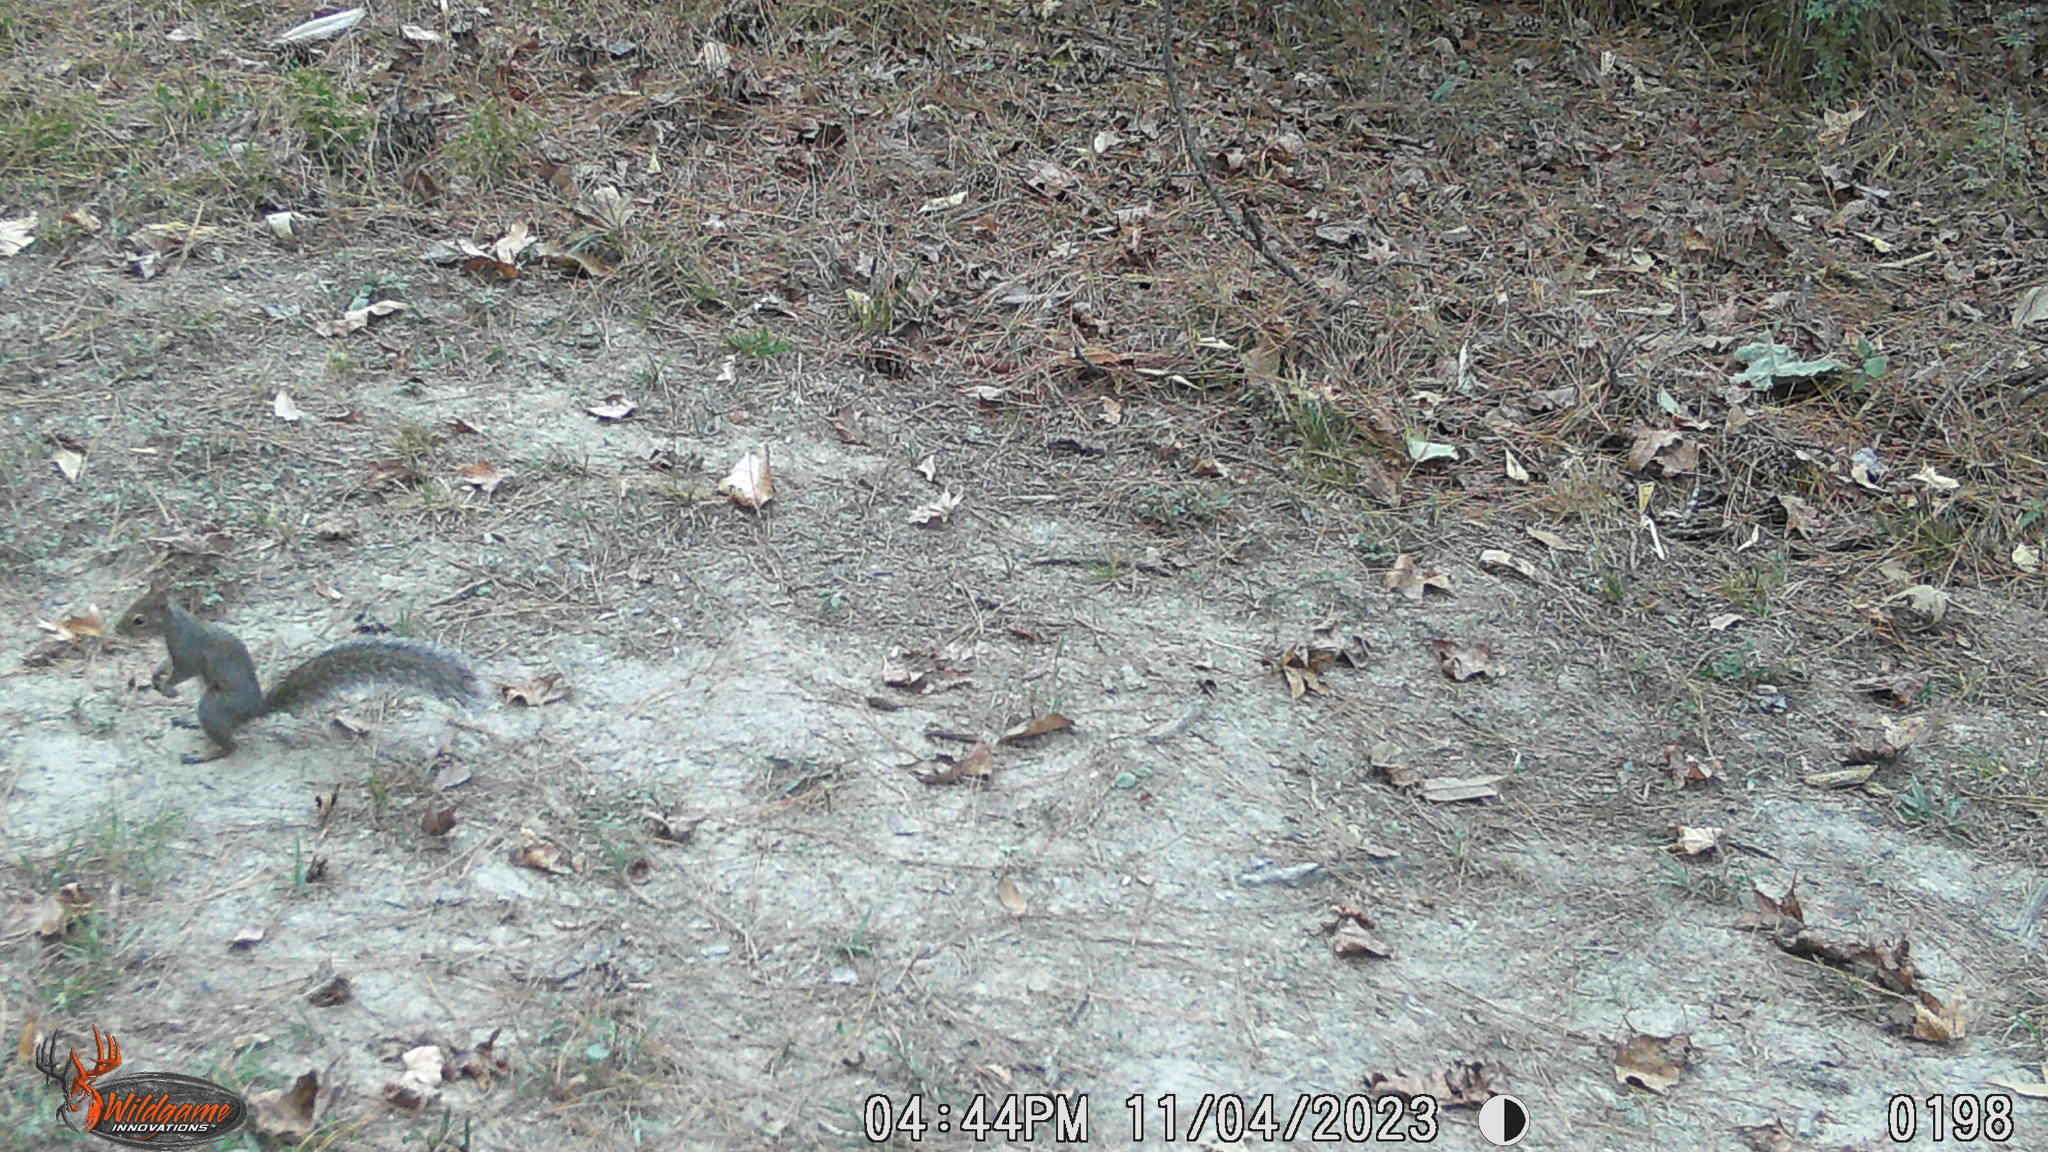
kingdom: Animalia
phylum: Chordata
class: Mammalia
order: Rodentia
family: Sciuridae
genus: Sciurus
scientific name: Sciurus carolinensis
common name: Eastern gray squirrel
